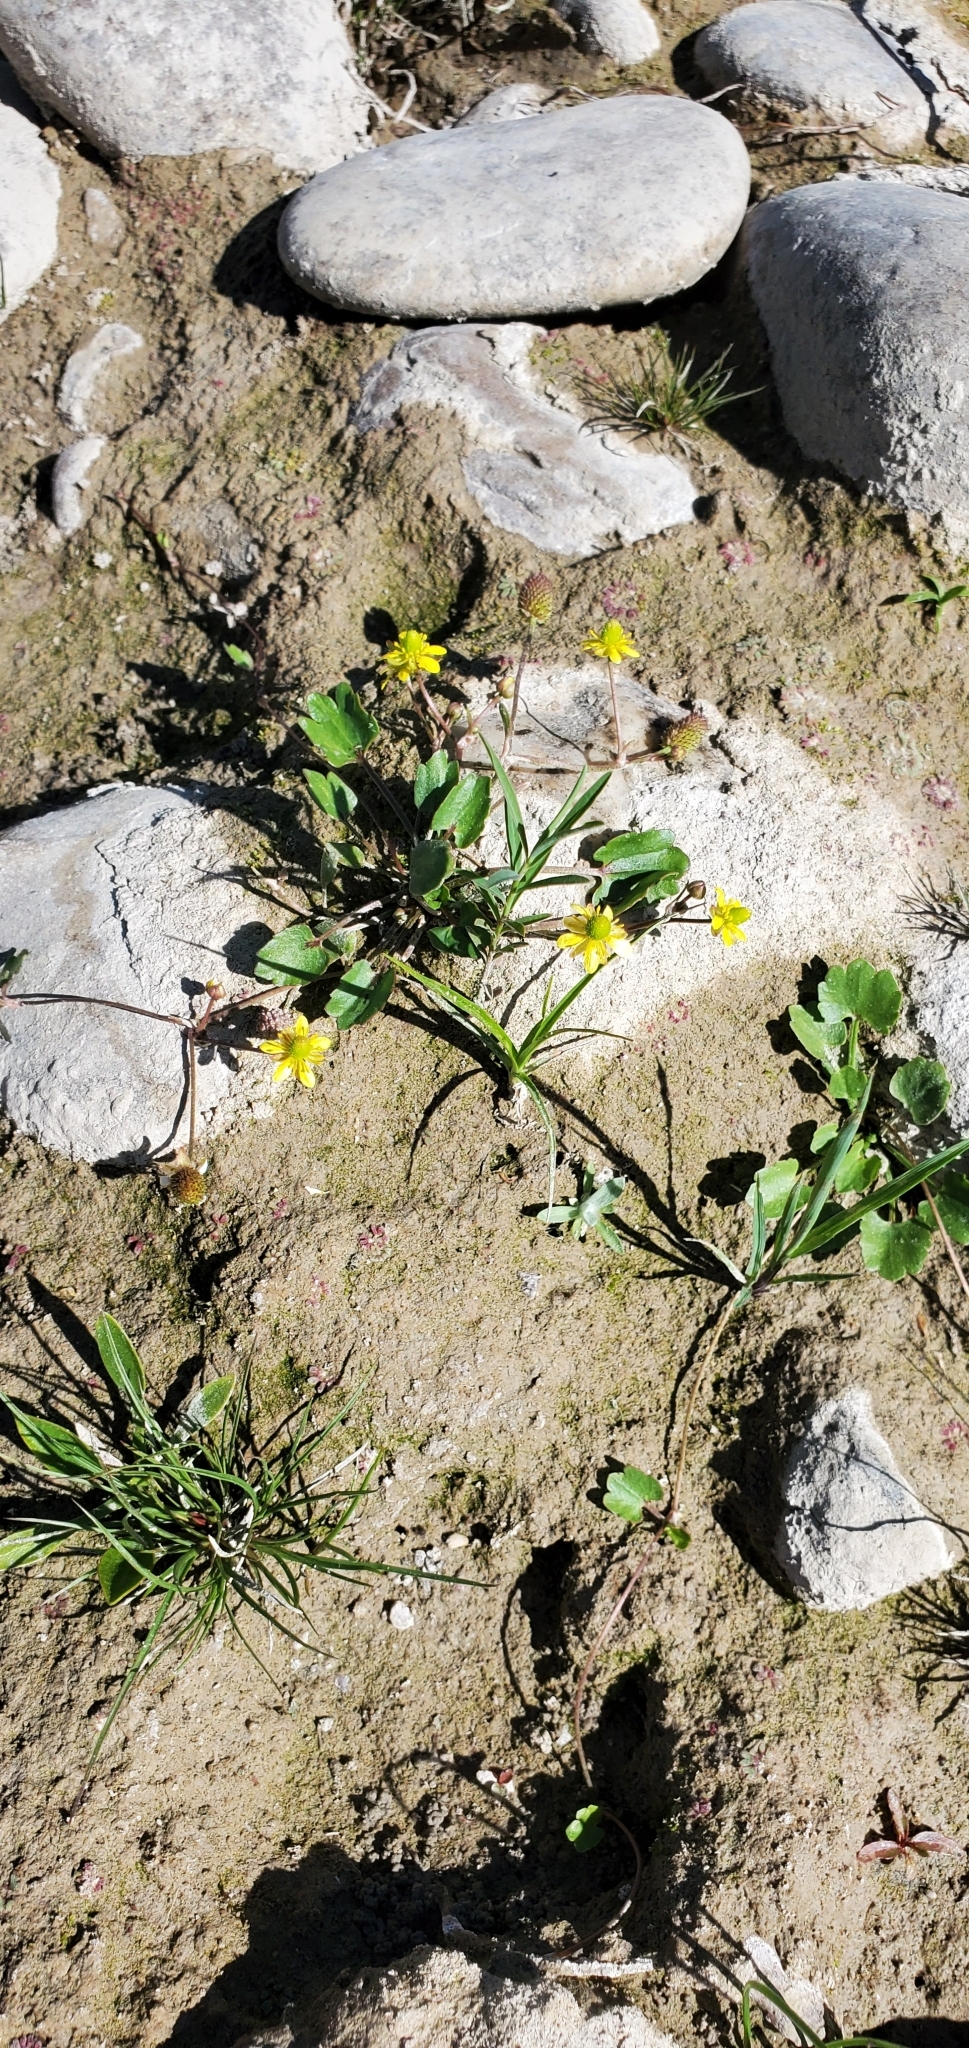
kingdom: Plantae
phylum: Tracheophyta
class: Magnoliopsida
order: Ranunculales
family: Ranunculaceae
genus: Halerpestes
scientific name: Halerpestes cymbalaria
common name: Seaside crowfoot
